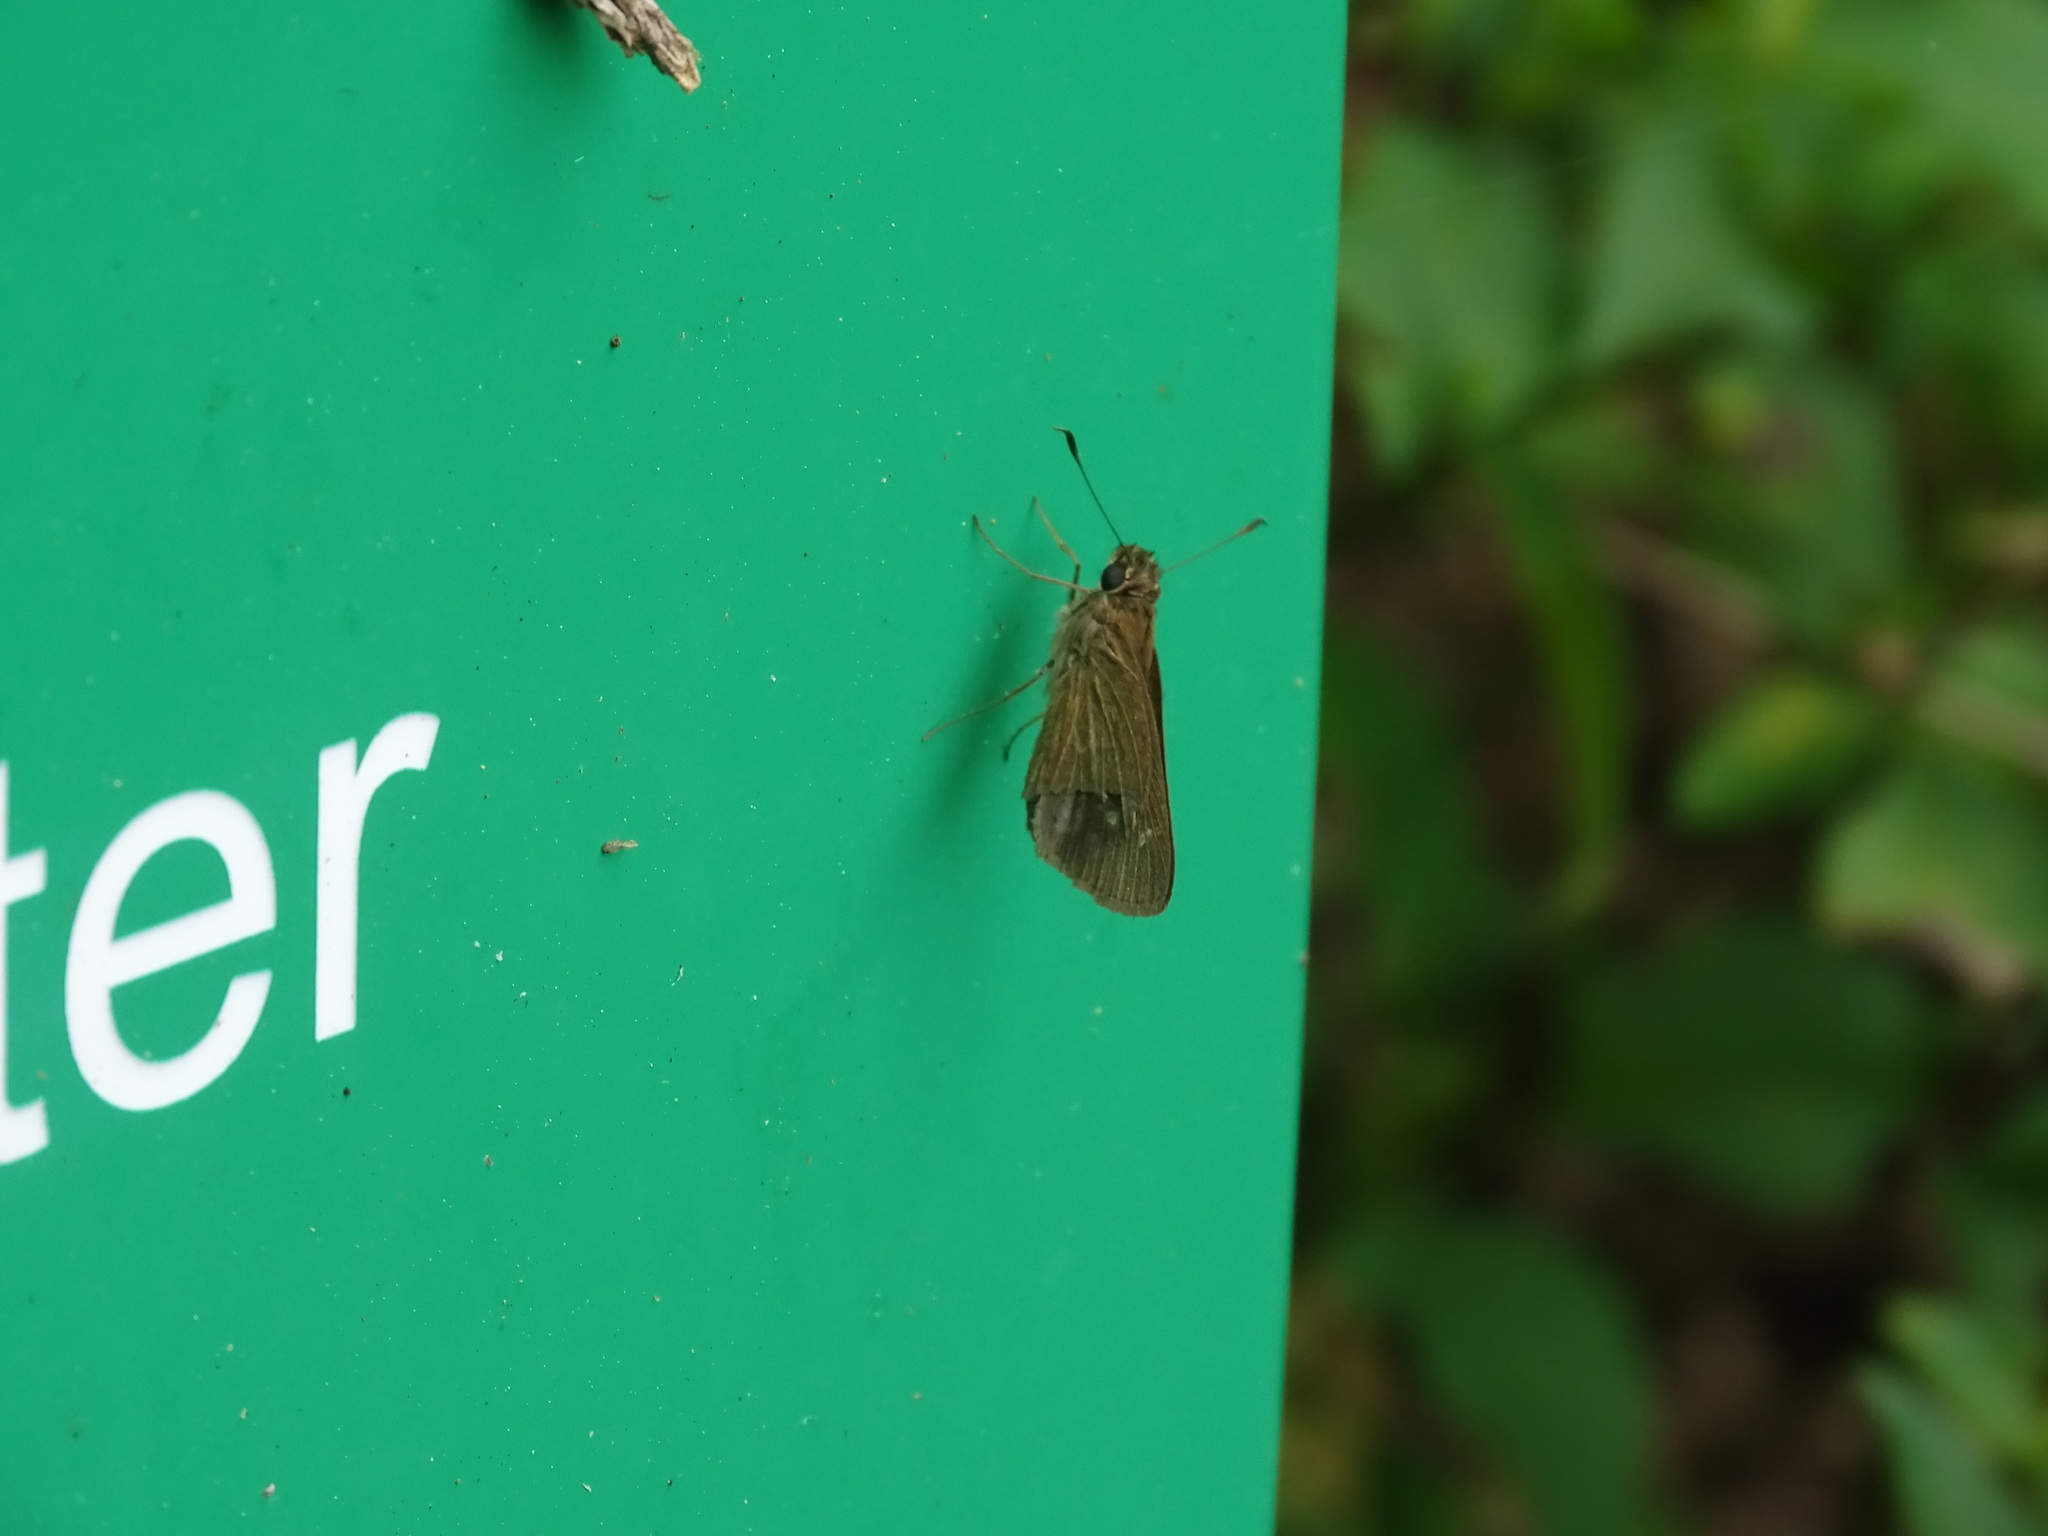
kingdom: Animalia
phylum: Arthropoda
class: Insecta
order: Lepidoptera
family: Hesperiidae
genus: Cymaenes
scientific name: Cymaenes tripunctus
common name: Dingy dotted skipper
